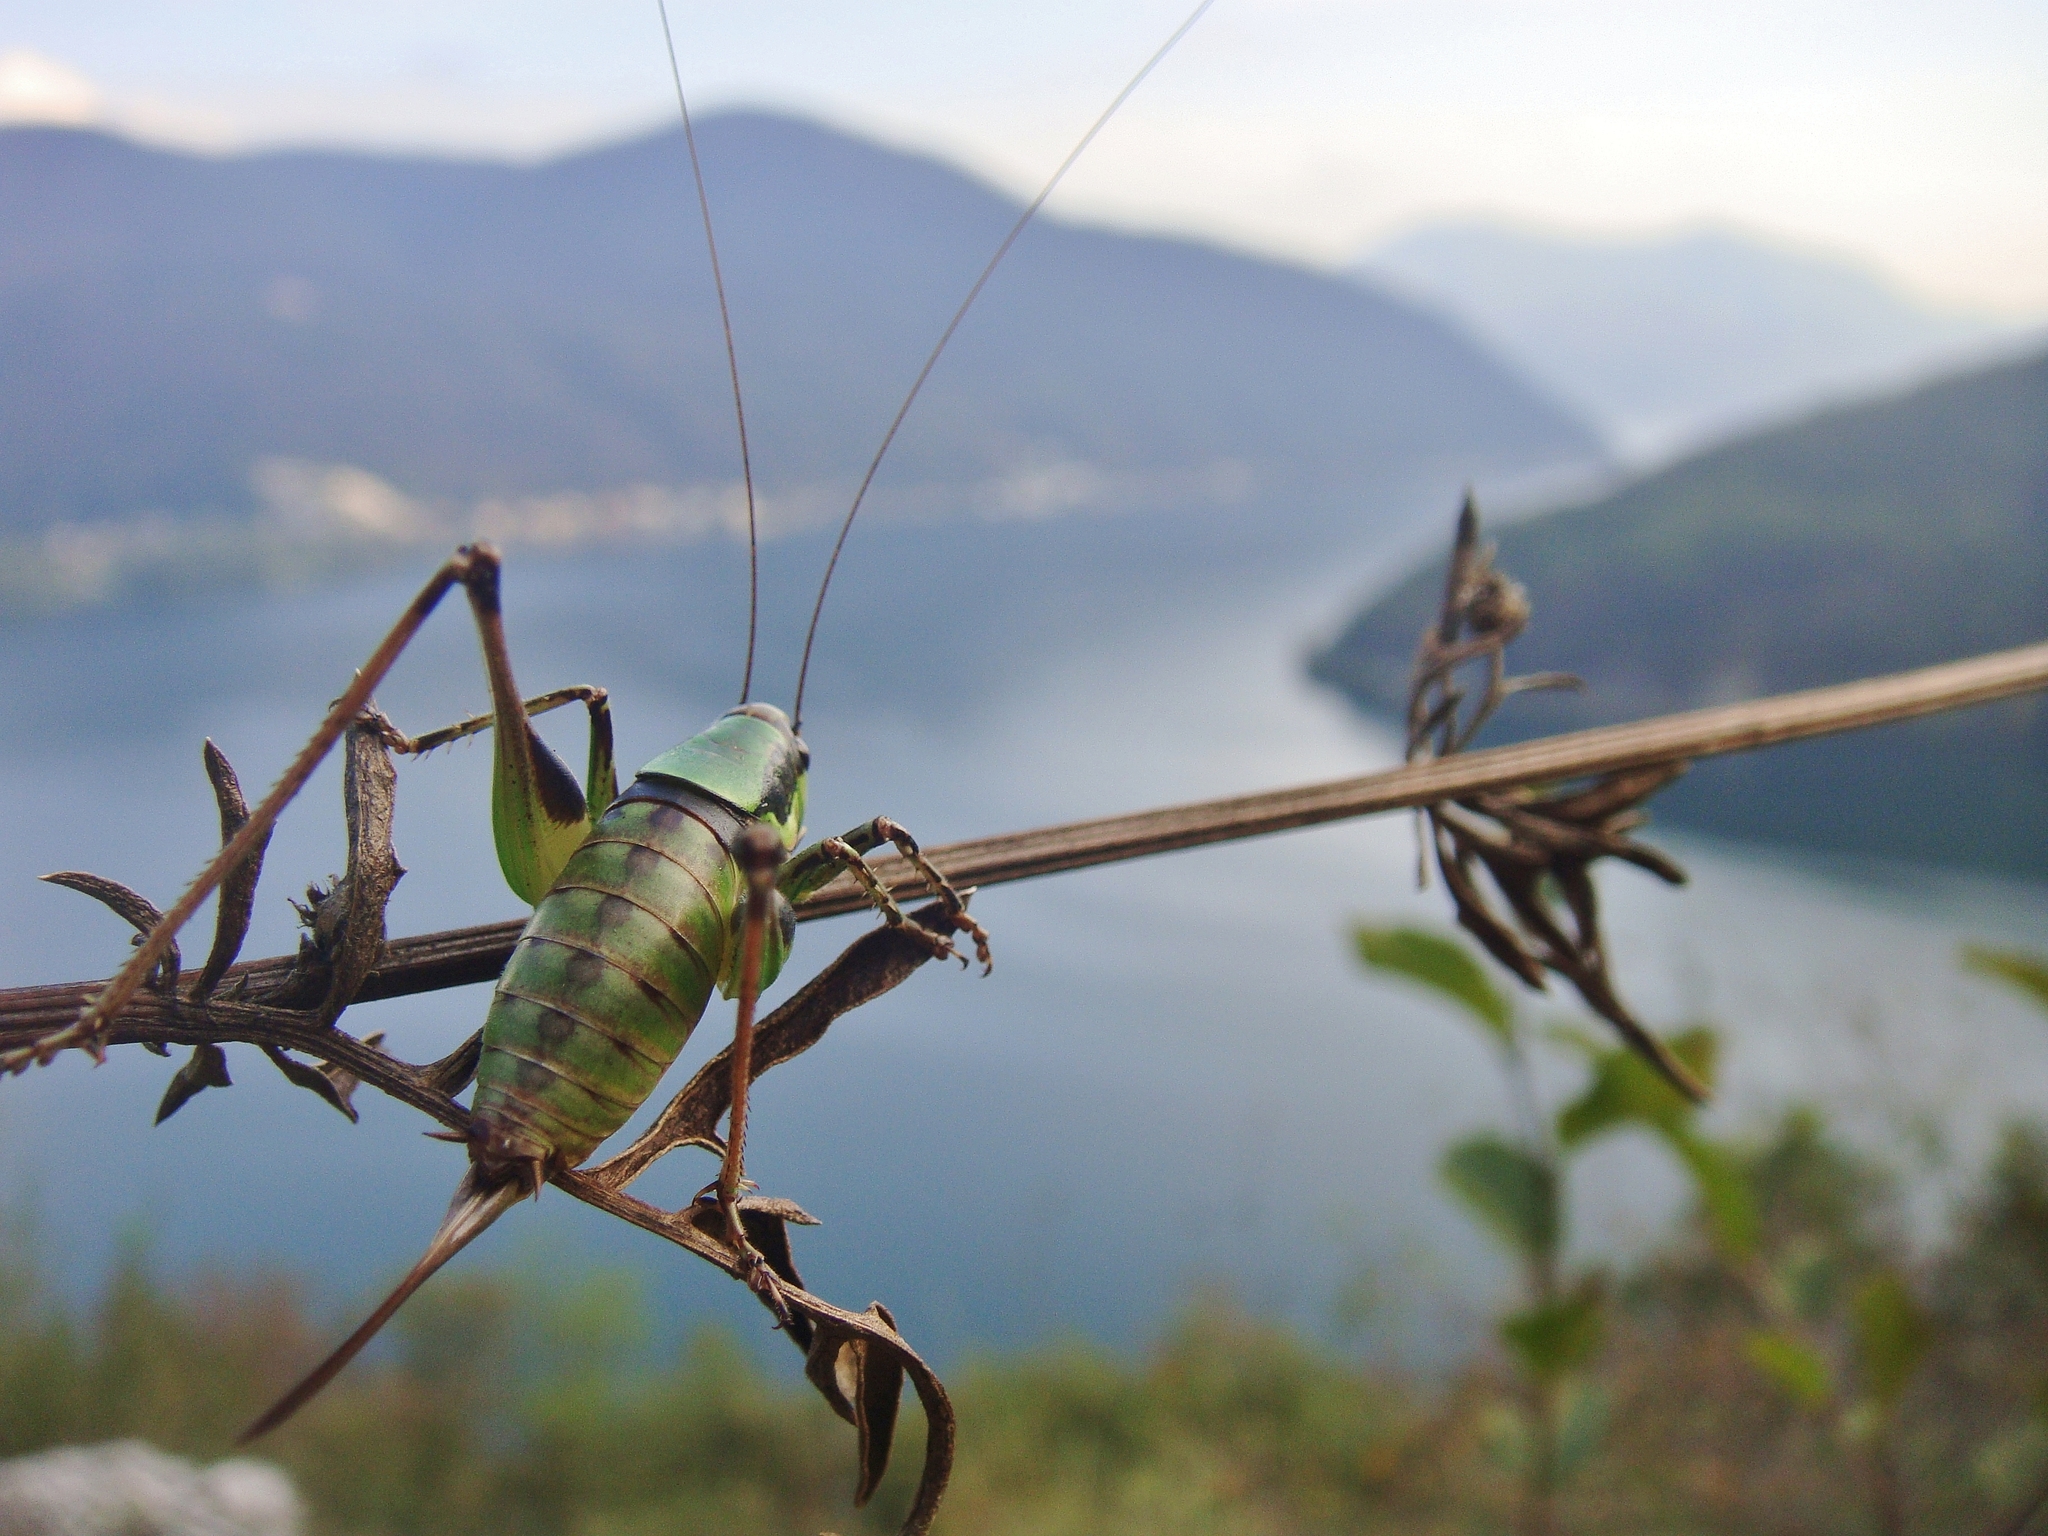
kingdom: Animalia
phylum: Arthropoda
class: Insecta
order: Orthoptera
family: Tettigoniidae
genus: Eupholidoptera
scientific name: Eupholidoptera chabrieri
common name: Chabrier's marbled bush-cricket
